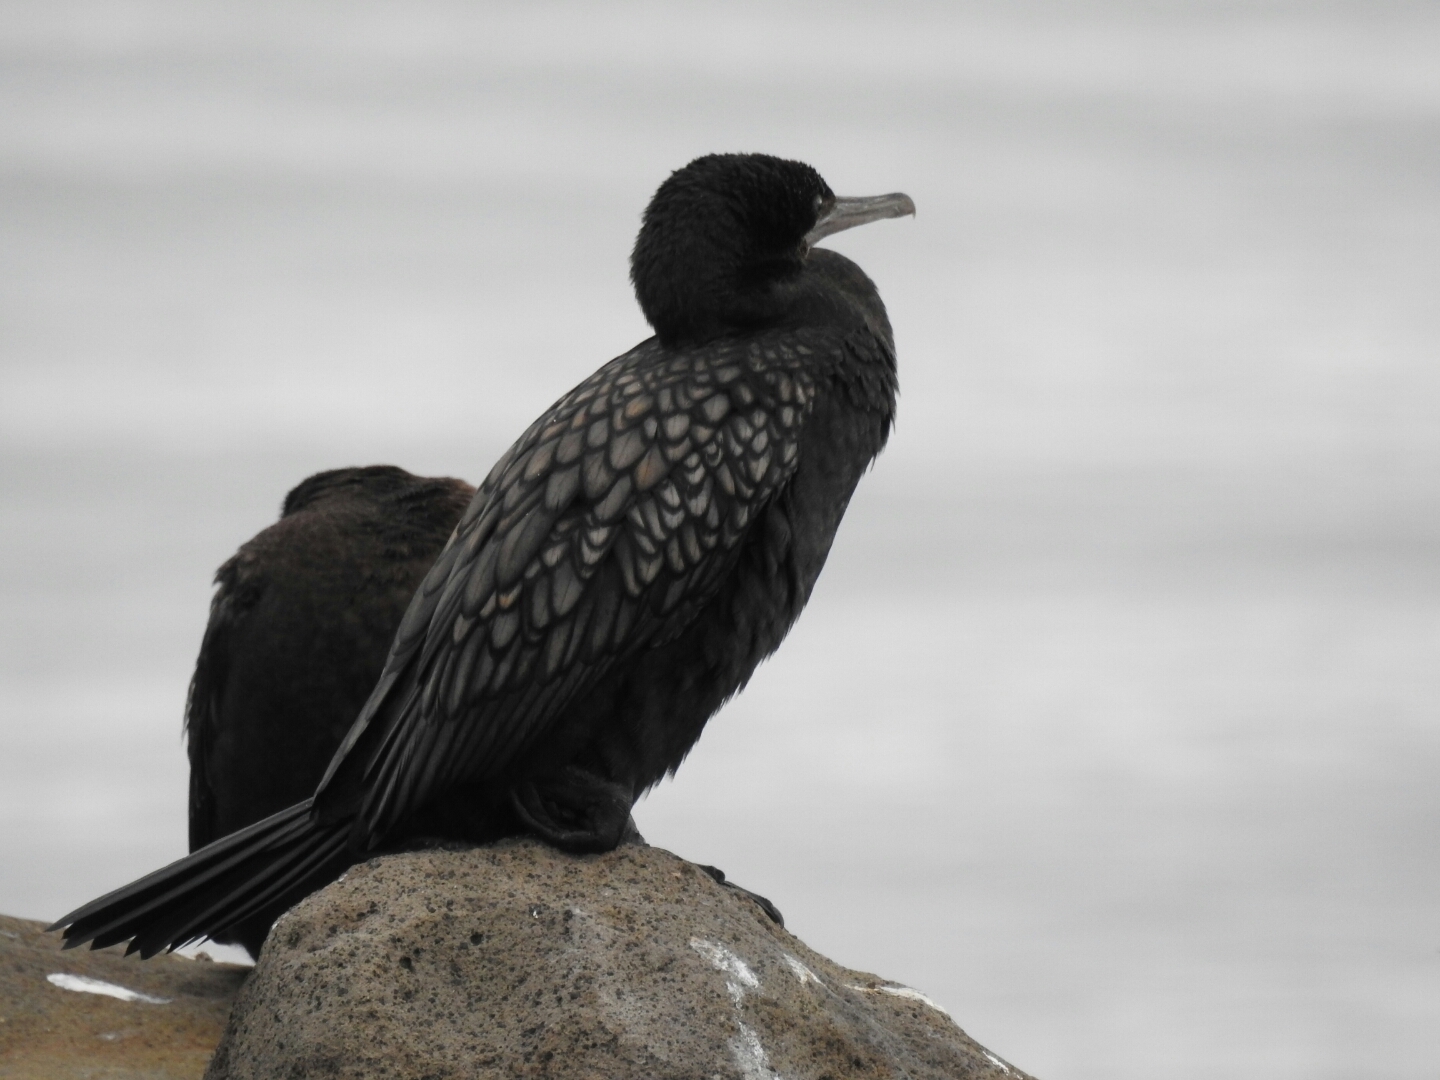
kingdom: Animalia
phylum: Chordata
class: Aves
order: Suliformes
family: Phalacrocoracidae
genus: Phalacrocorax
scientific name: Phalacrocorax sulcirostris
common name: Little black cormorant
